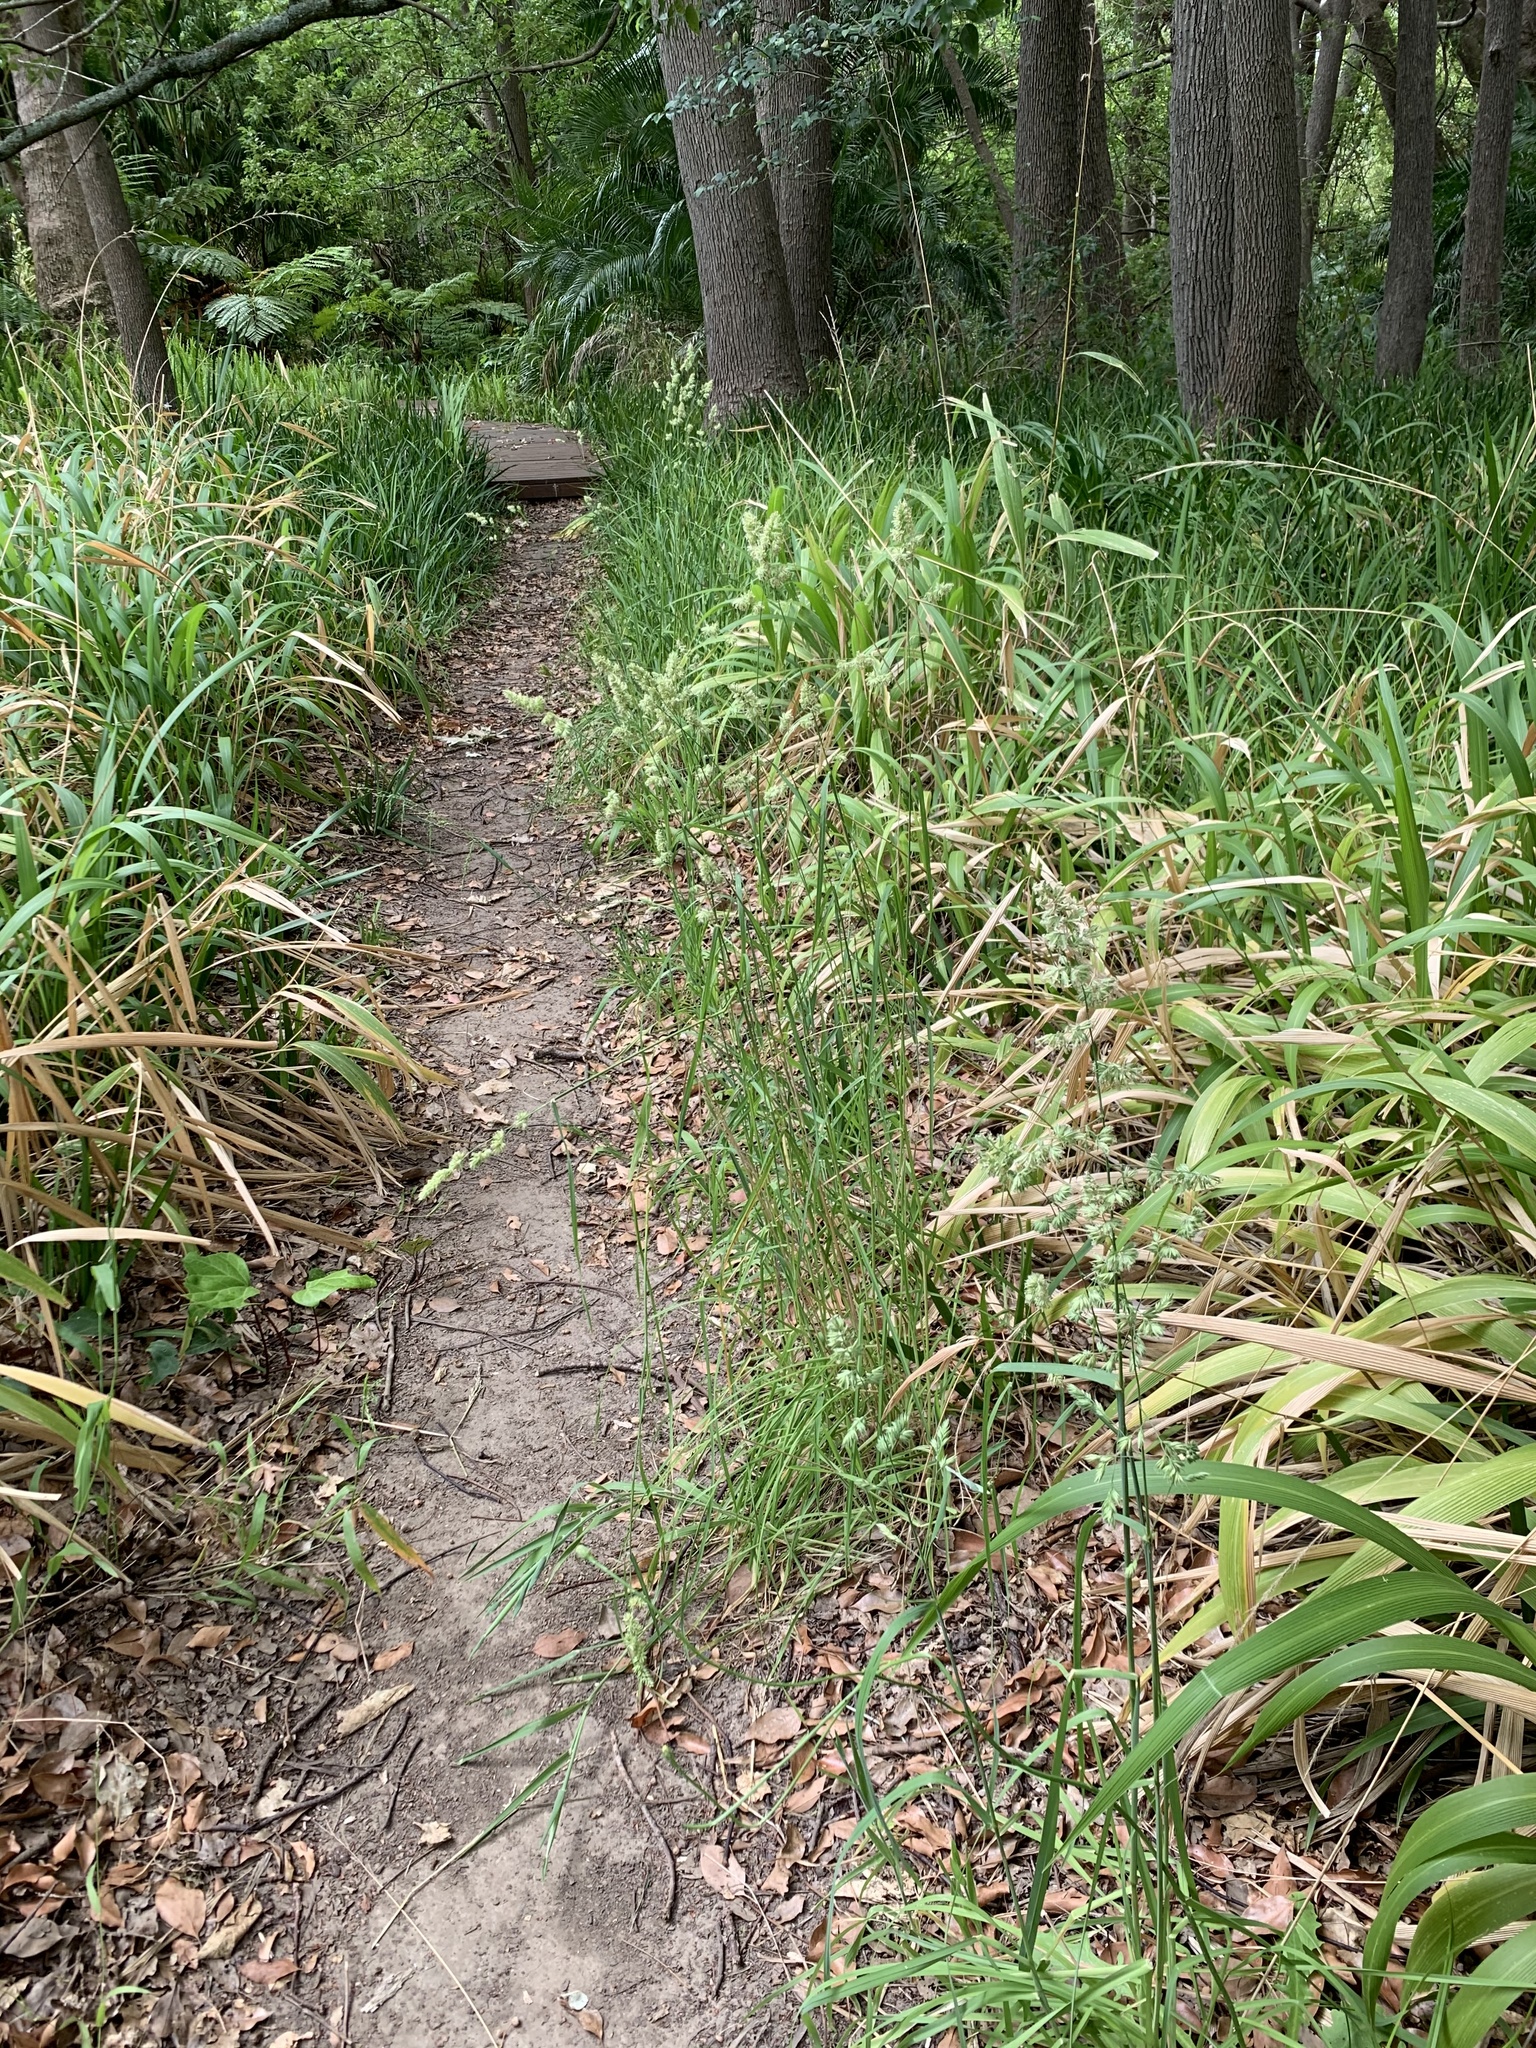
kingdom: Plantae
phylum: Tracheophyta
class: Liliopsida
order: Poales
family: Poaceae
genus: Dactylis
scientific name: Dactylis glomerata
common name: Orchardgrass
